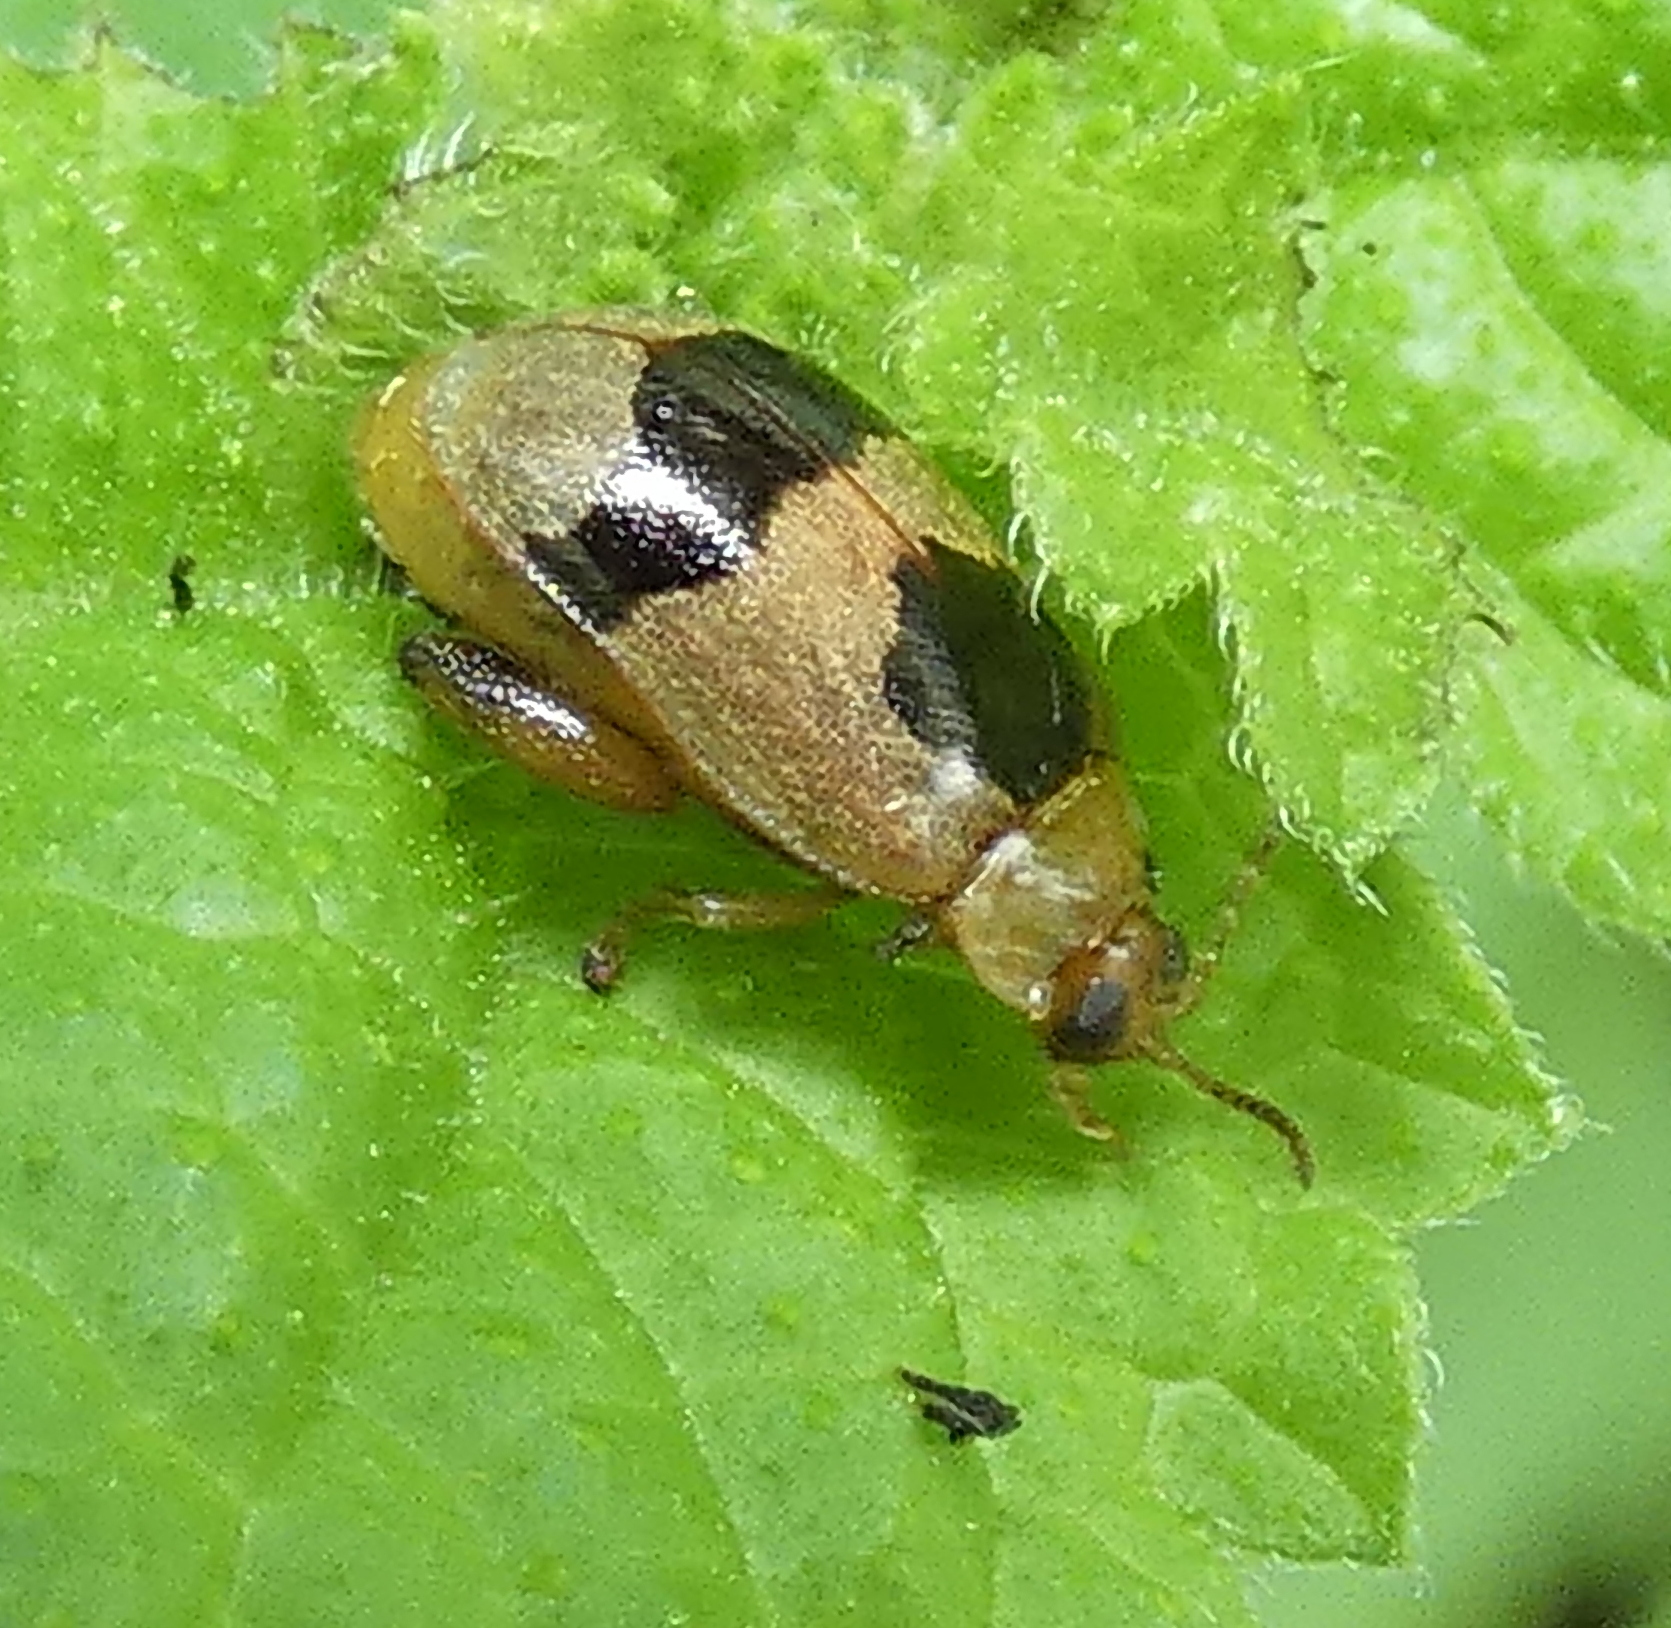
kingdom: Animalia
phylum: Arthropoda
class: Insecta
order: Coleoptera
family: Chrysomelidae
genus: Alagoasa
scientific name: Alagoasa
